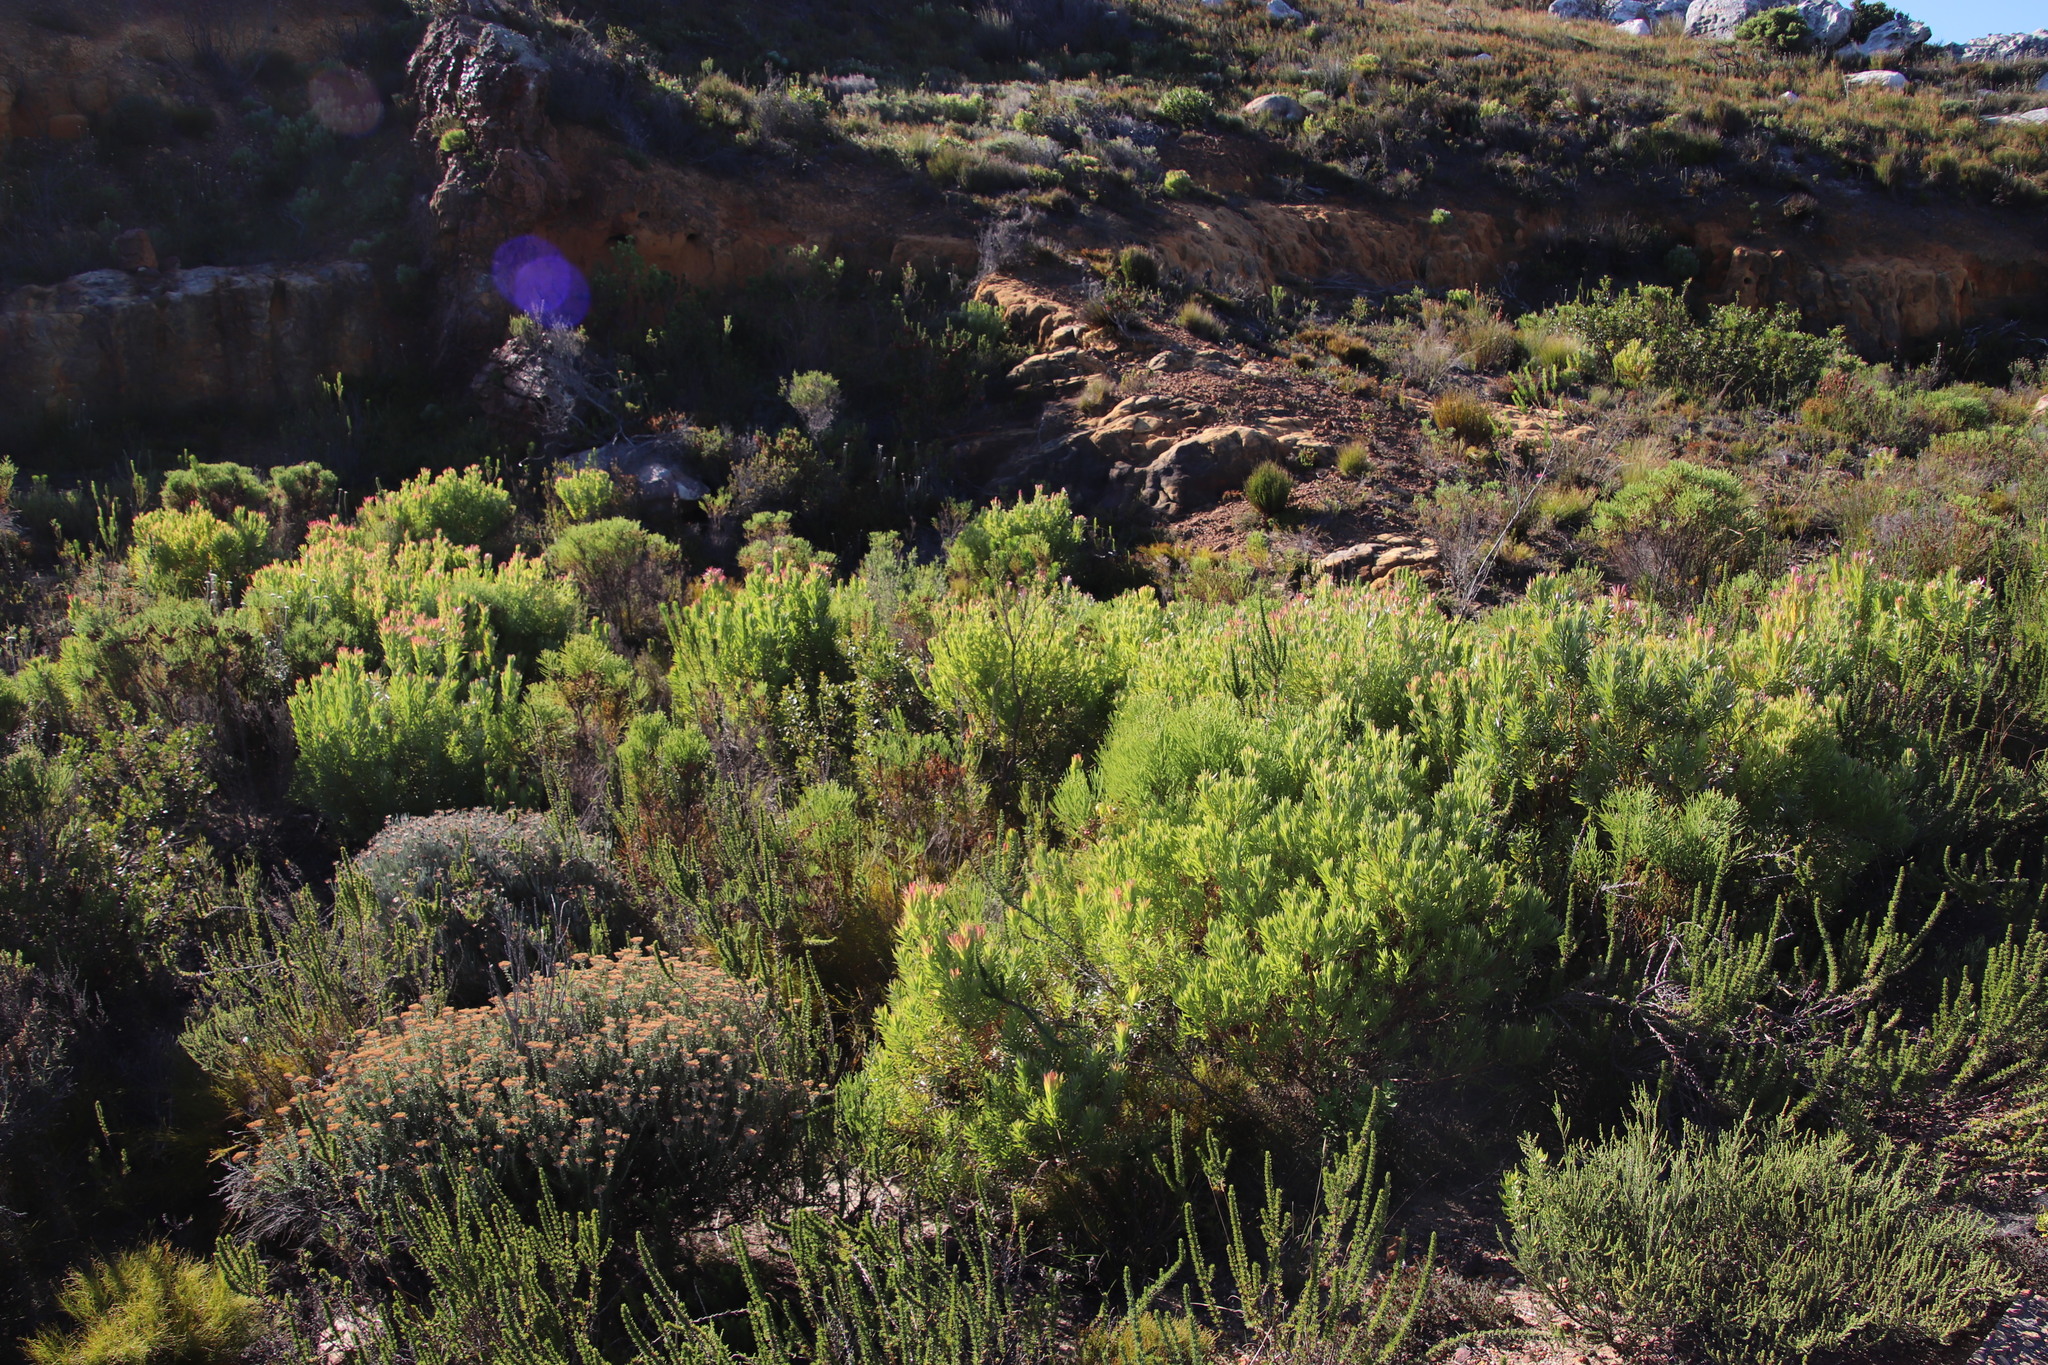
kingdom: Plantae
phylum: Tracheophyta
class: Magnoliopsida
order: Proteales
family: Proteaceae
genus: Leucadendron
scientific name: Leucadendron xanthoconus
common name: Sickle-leaf conebush
